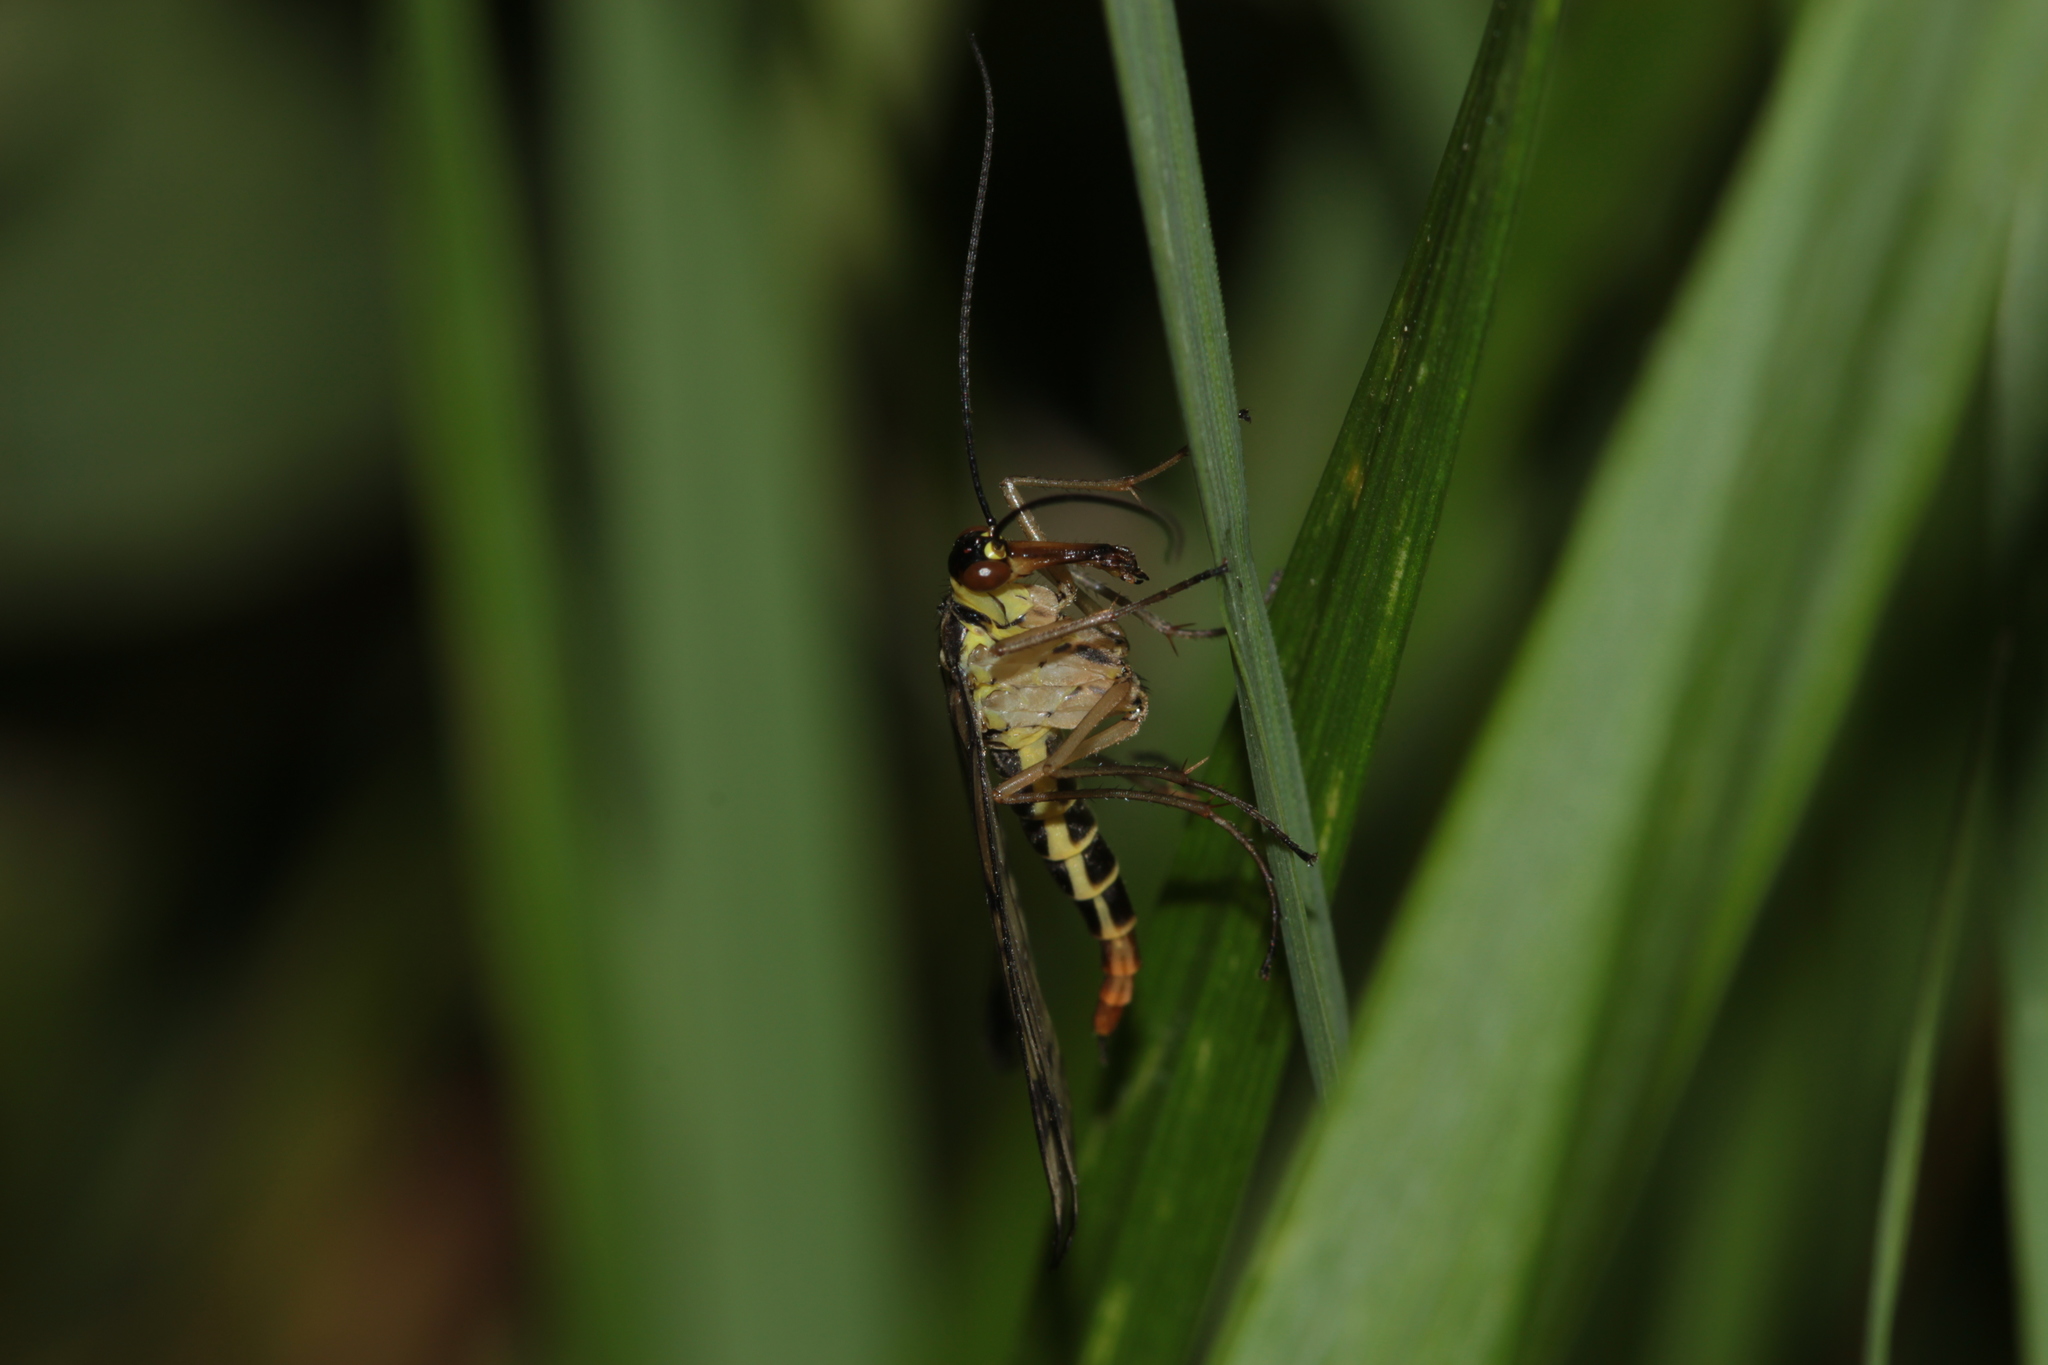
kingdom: Animalia
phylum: Arthropoda
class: Insecta
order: Mecoptera
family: Panorpidae
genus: Panorpa
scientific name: Panorpa germanica
